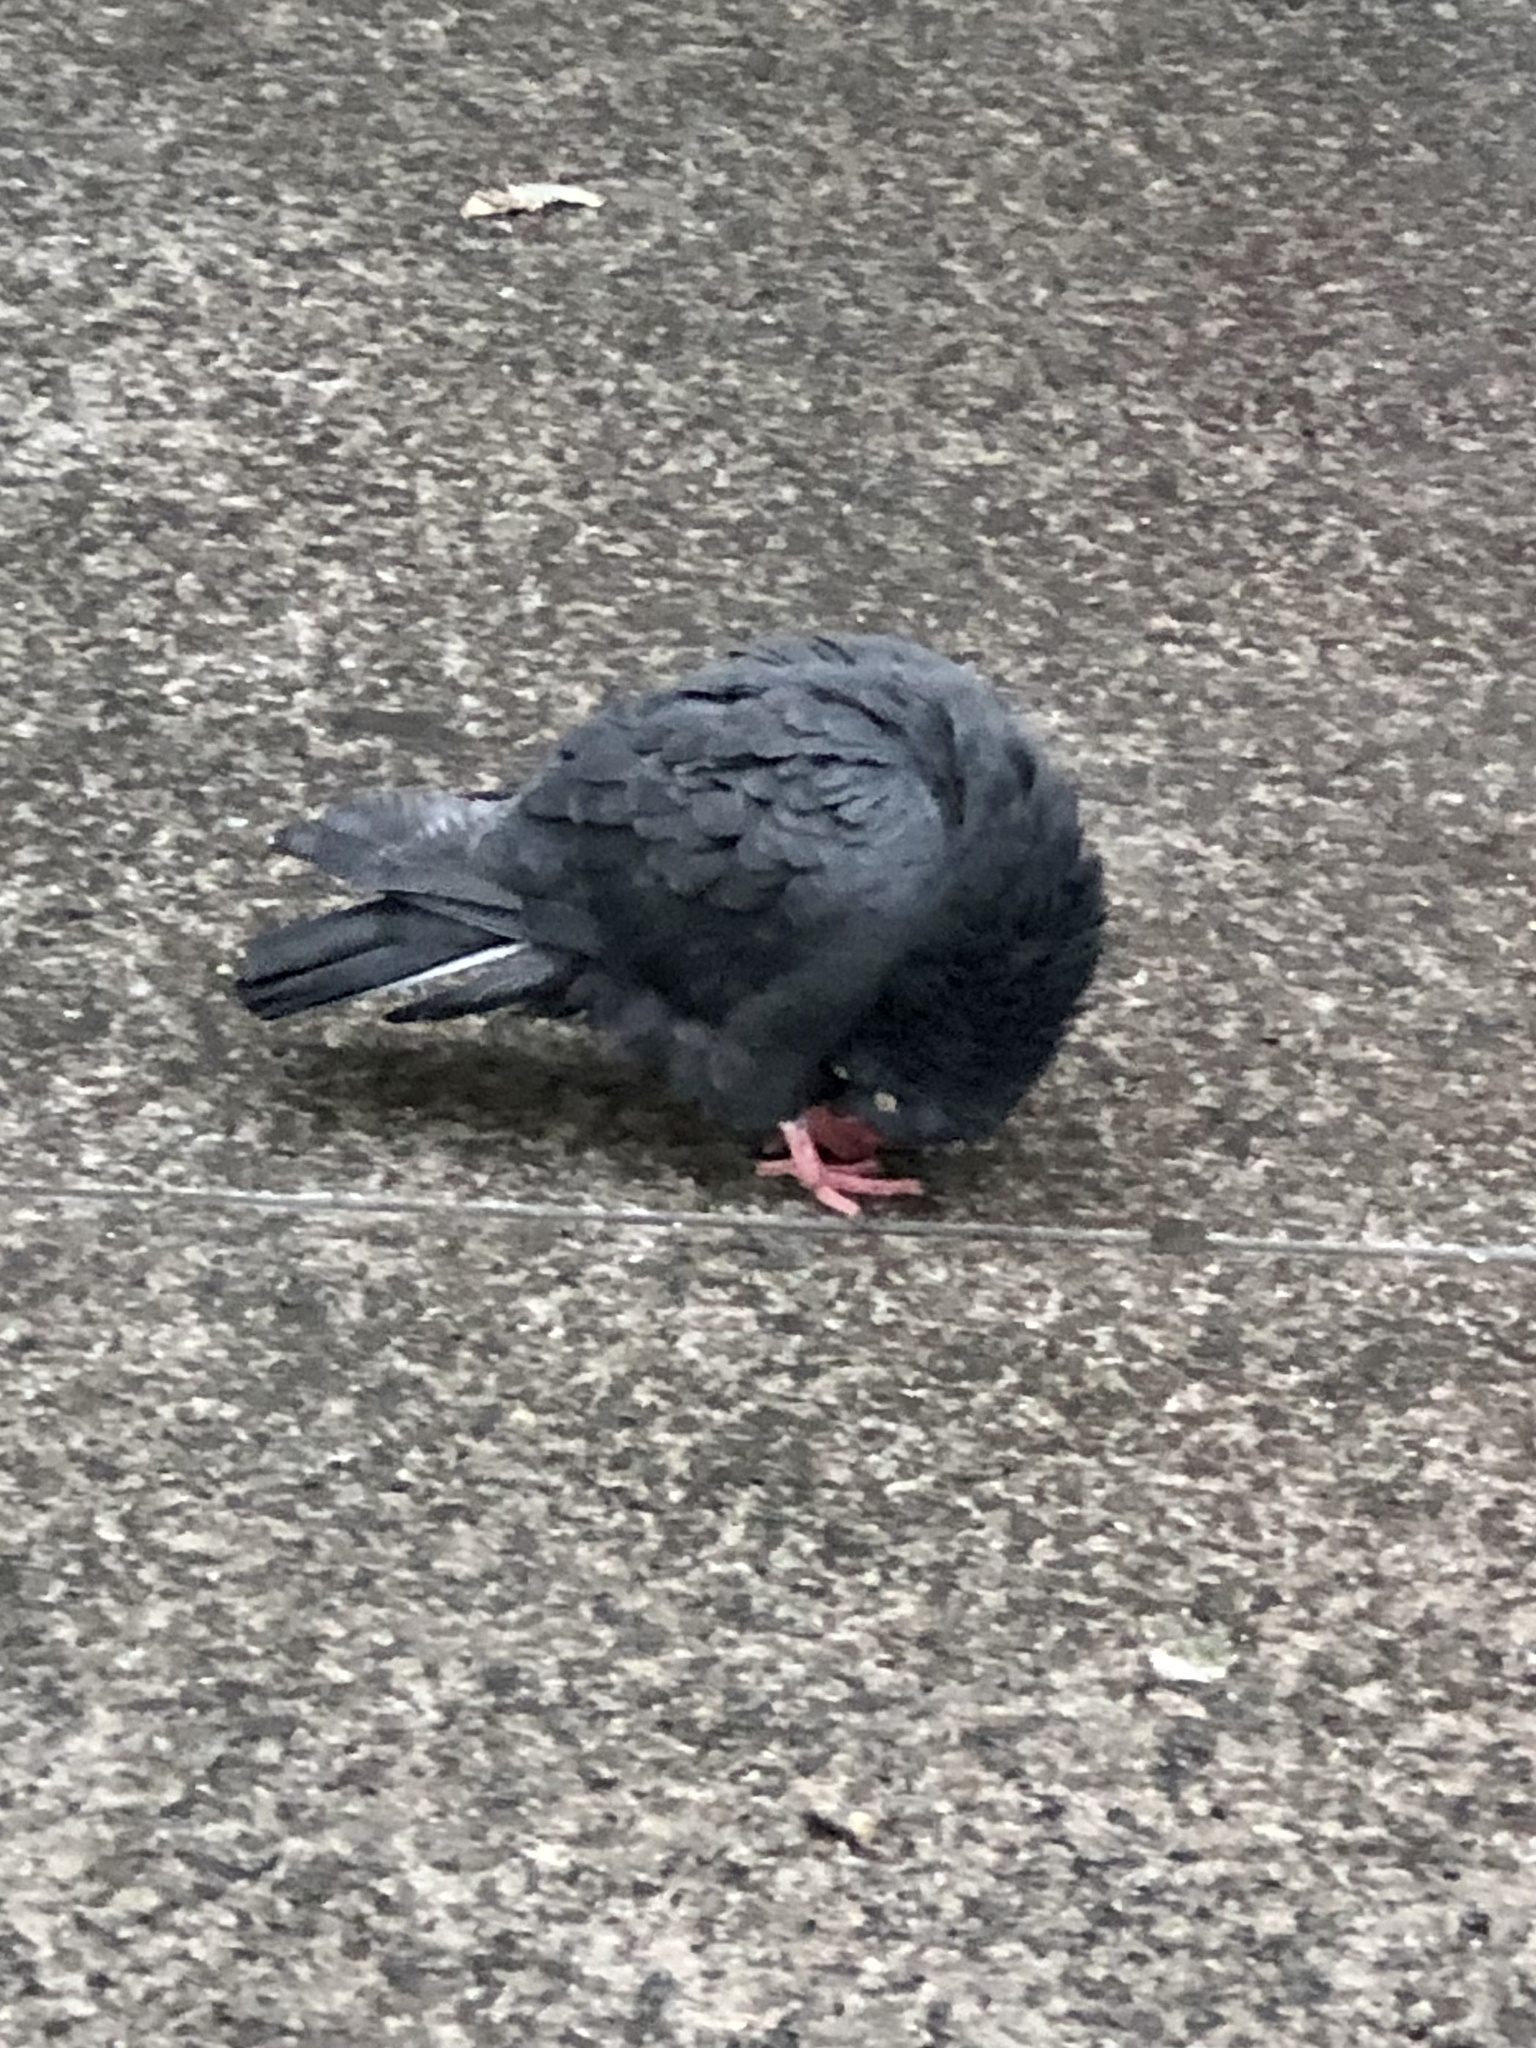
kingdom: Animalia
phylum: Chordata
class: Aves
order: Columbiformes
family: Columbidae
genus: Columba
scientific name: Columba livia
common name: Rock pigeon
